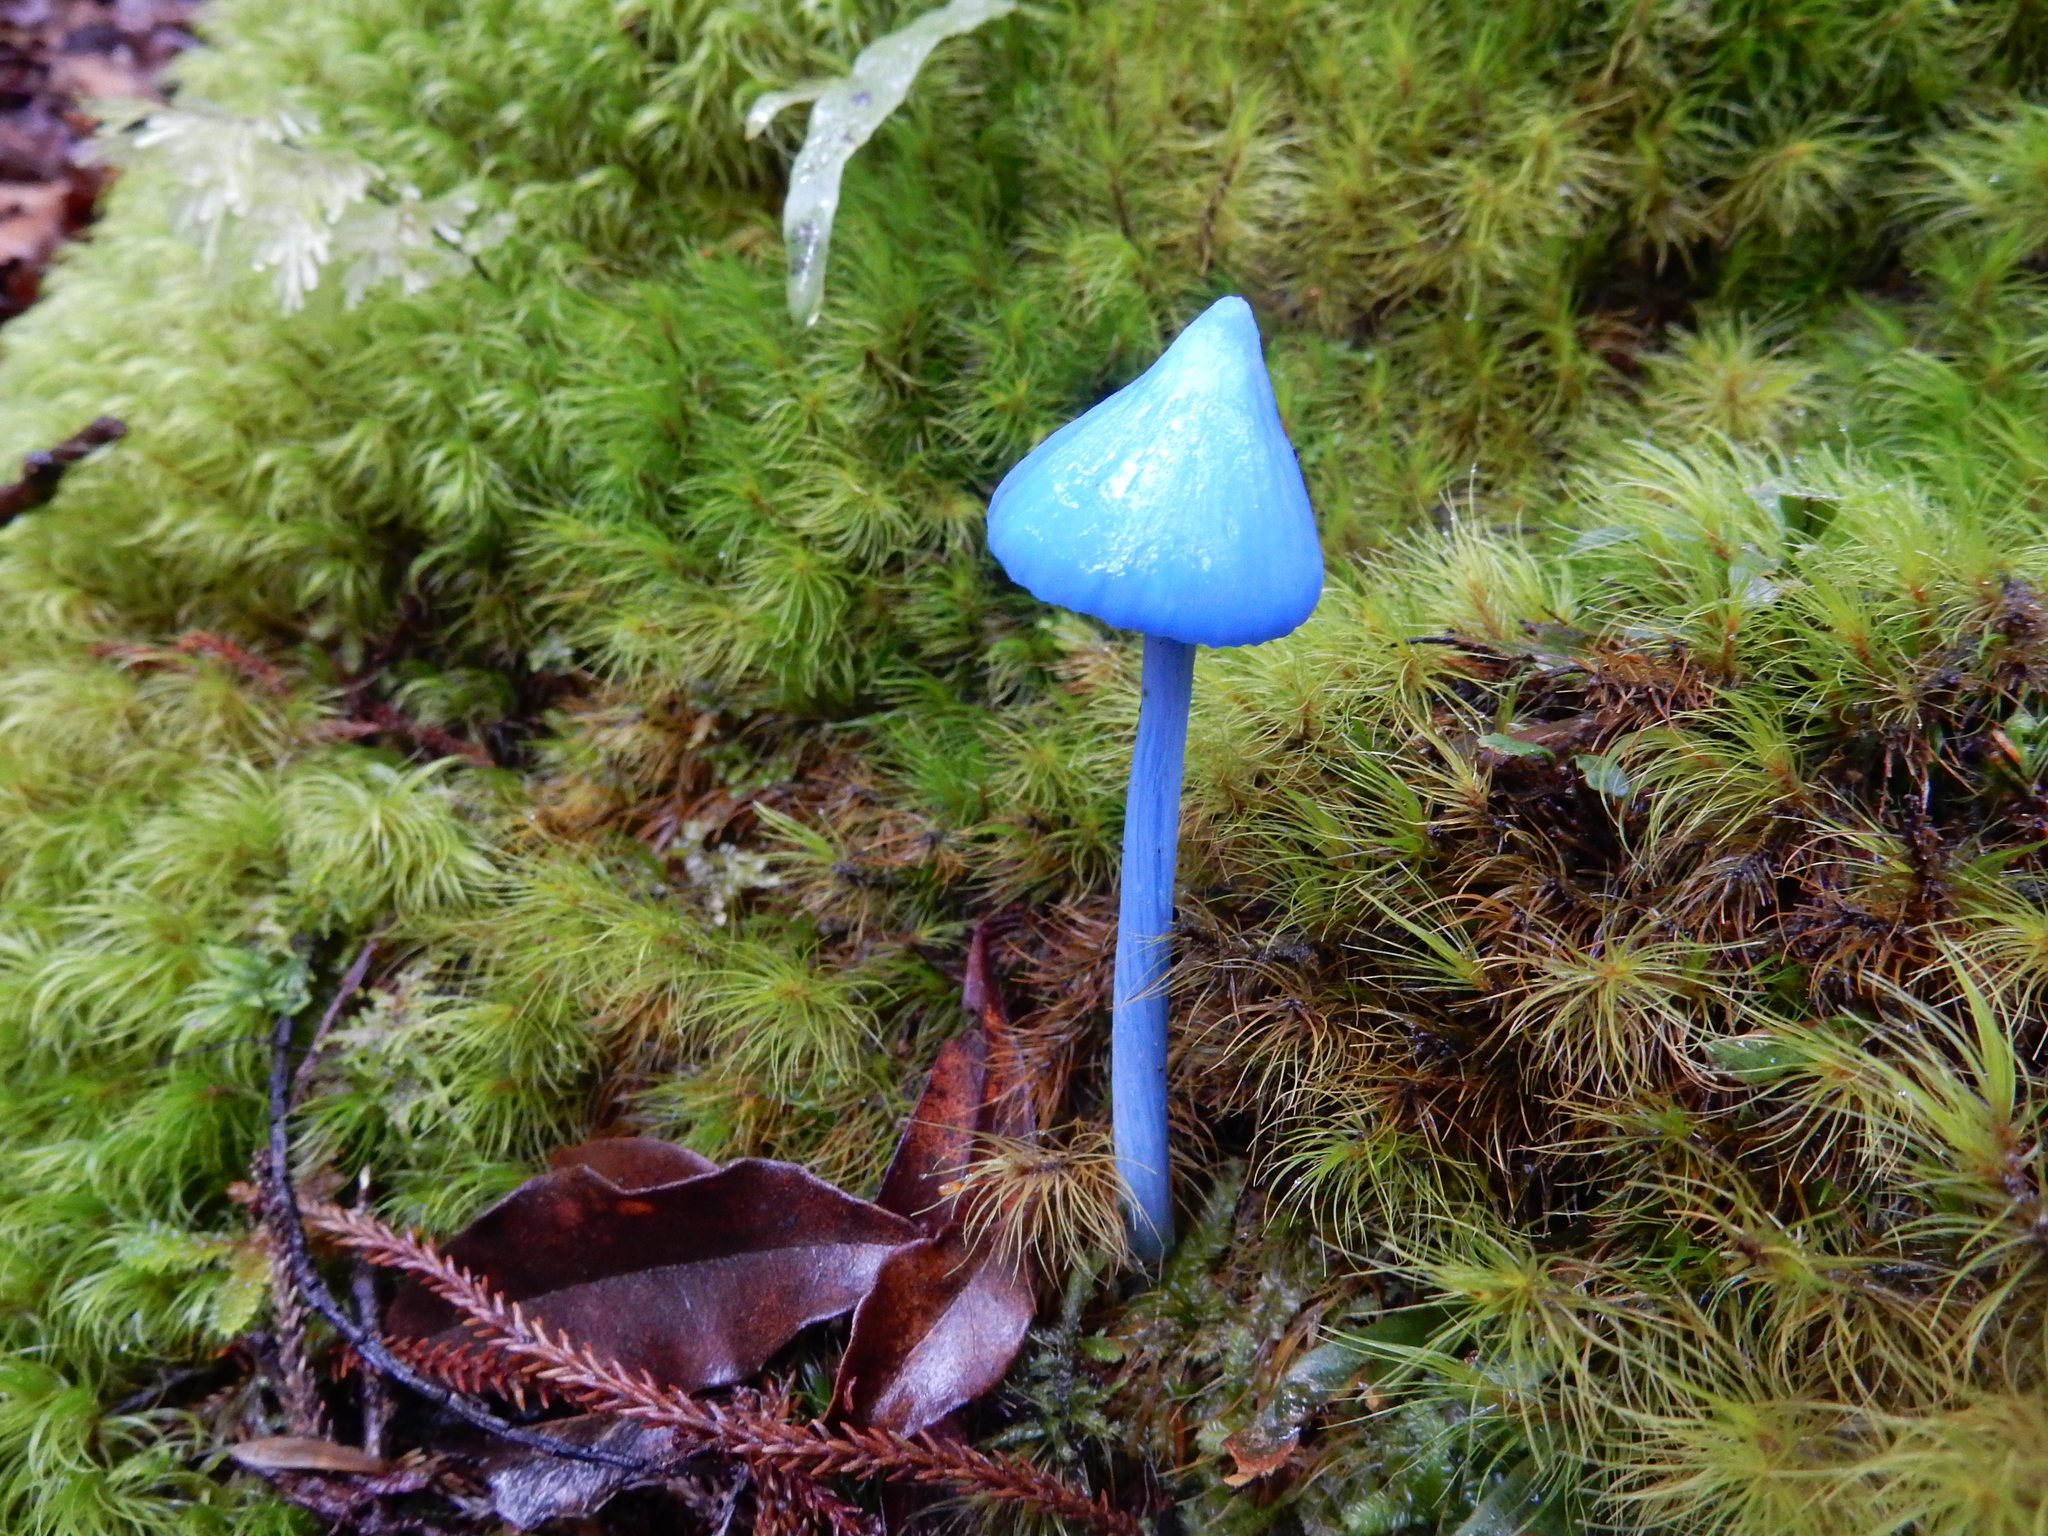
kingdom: Fungi
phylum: Basidiomycota
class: Agaricomycetes
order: Agaricales
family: Entolomataceae
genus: Entoloma
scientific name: Entoloma hochstetteri
